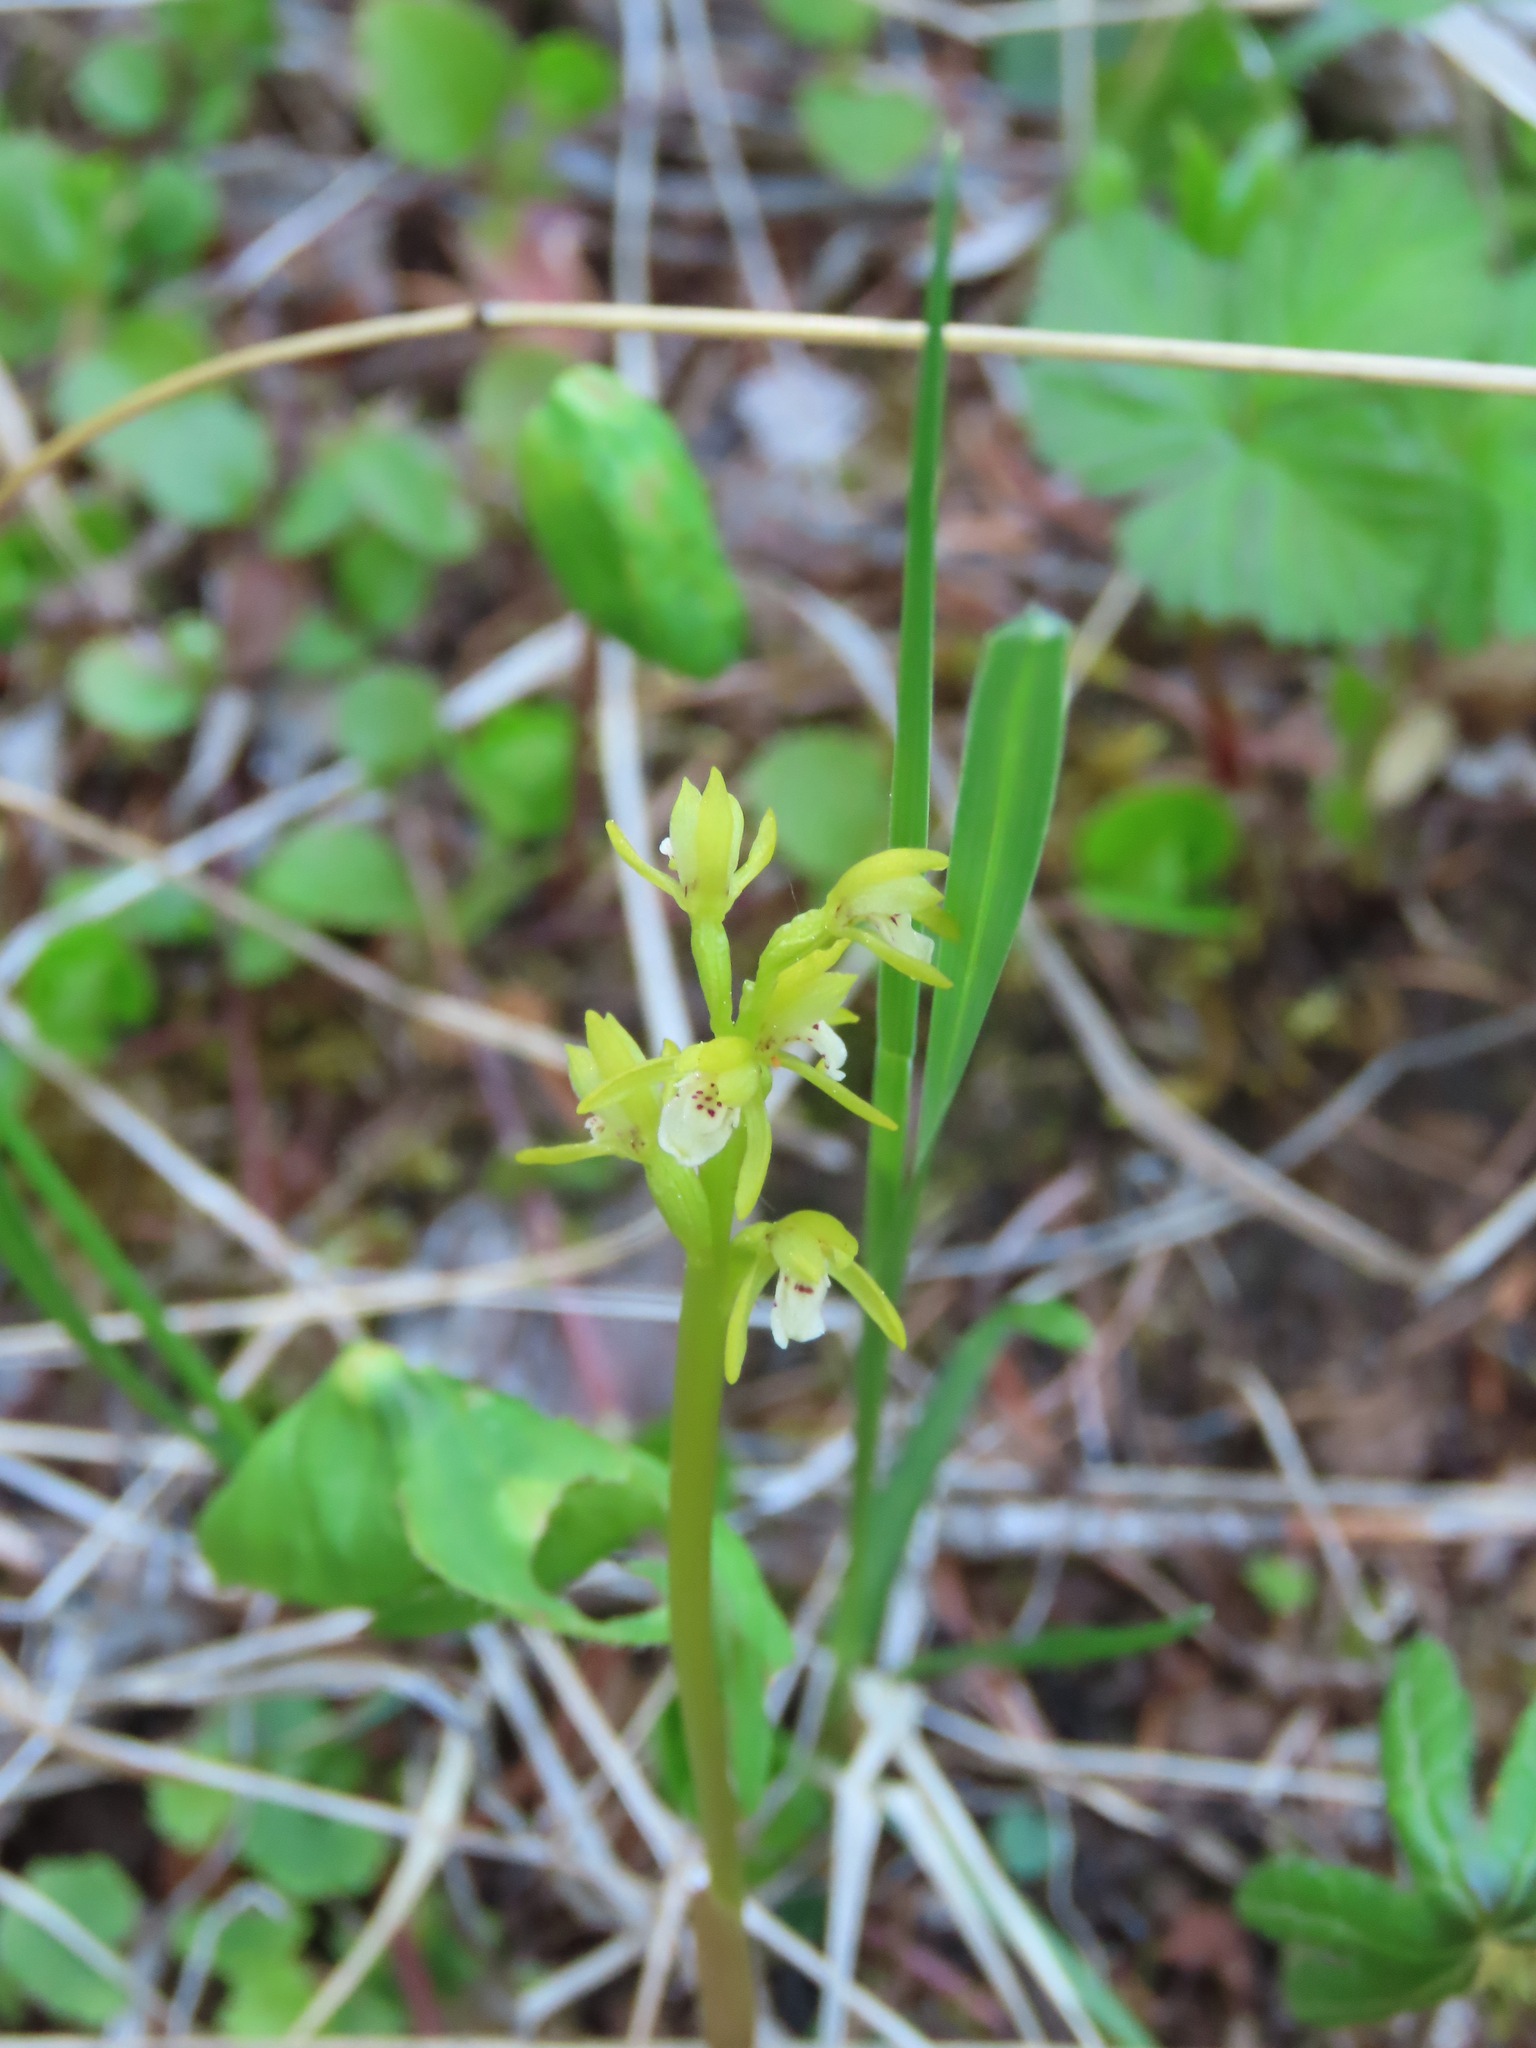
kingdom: Plantae
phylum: Tracheophyta
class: Liliopsida
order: Asparagales
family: Orchidaceae
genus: Corallorhiza
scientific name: Corallorhiza trifida
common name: Yellow coralroot
